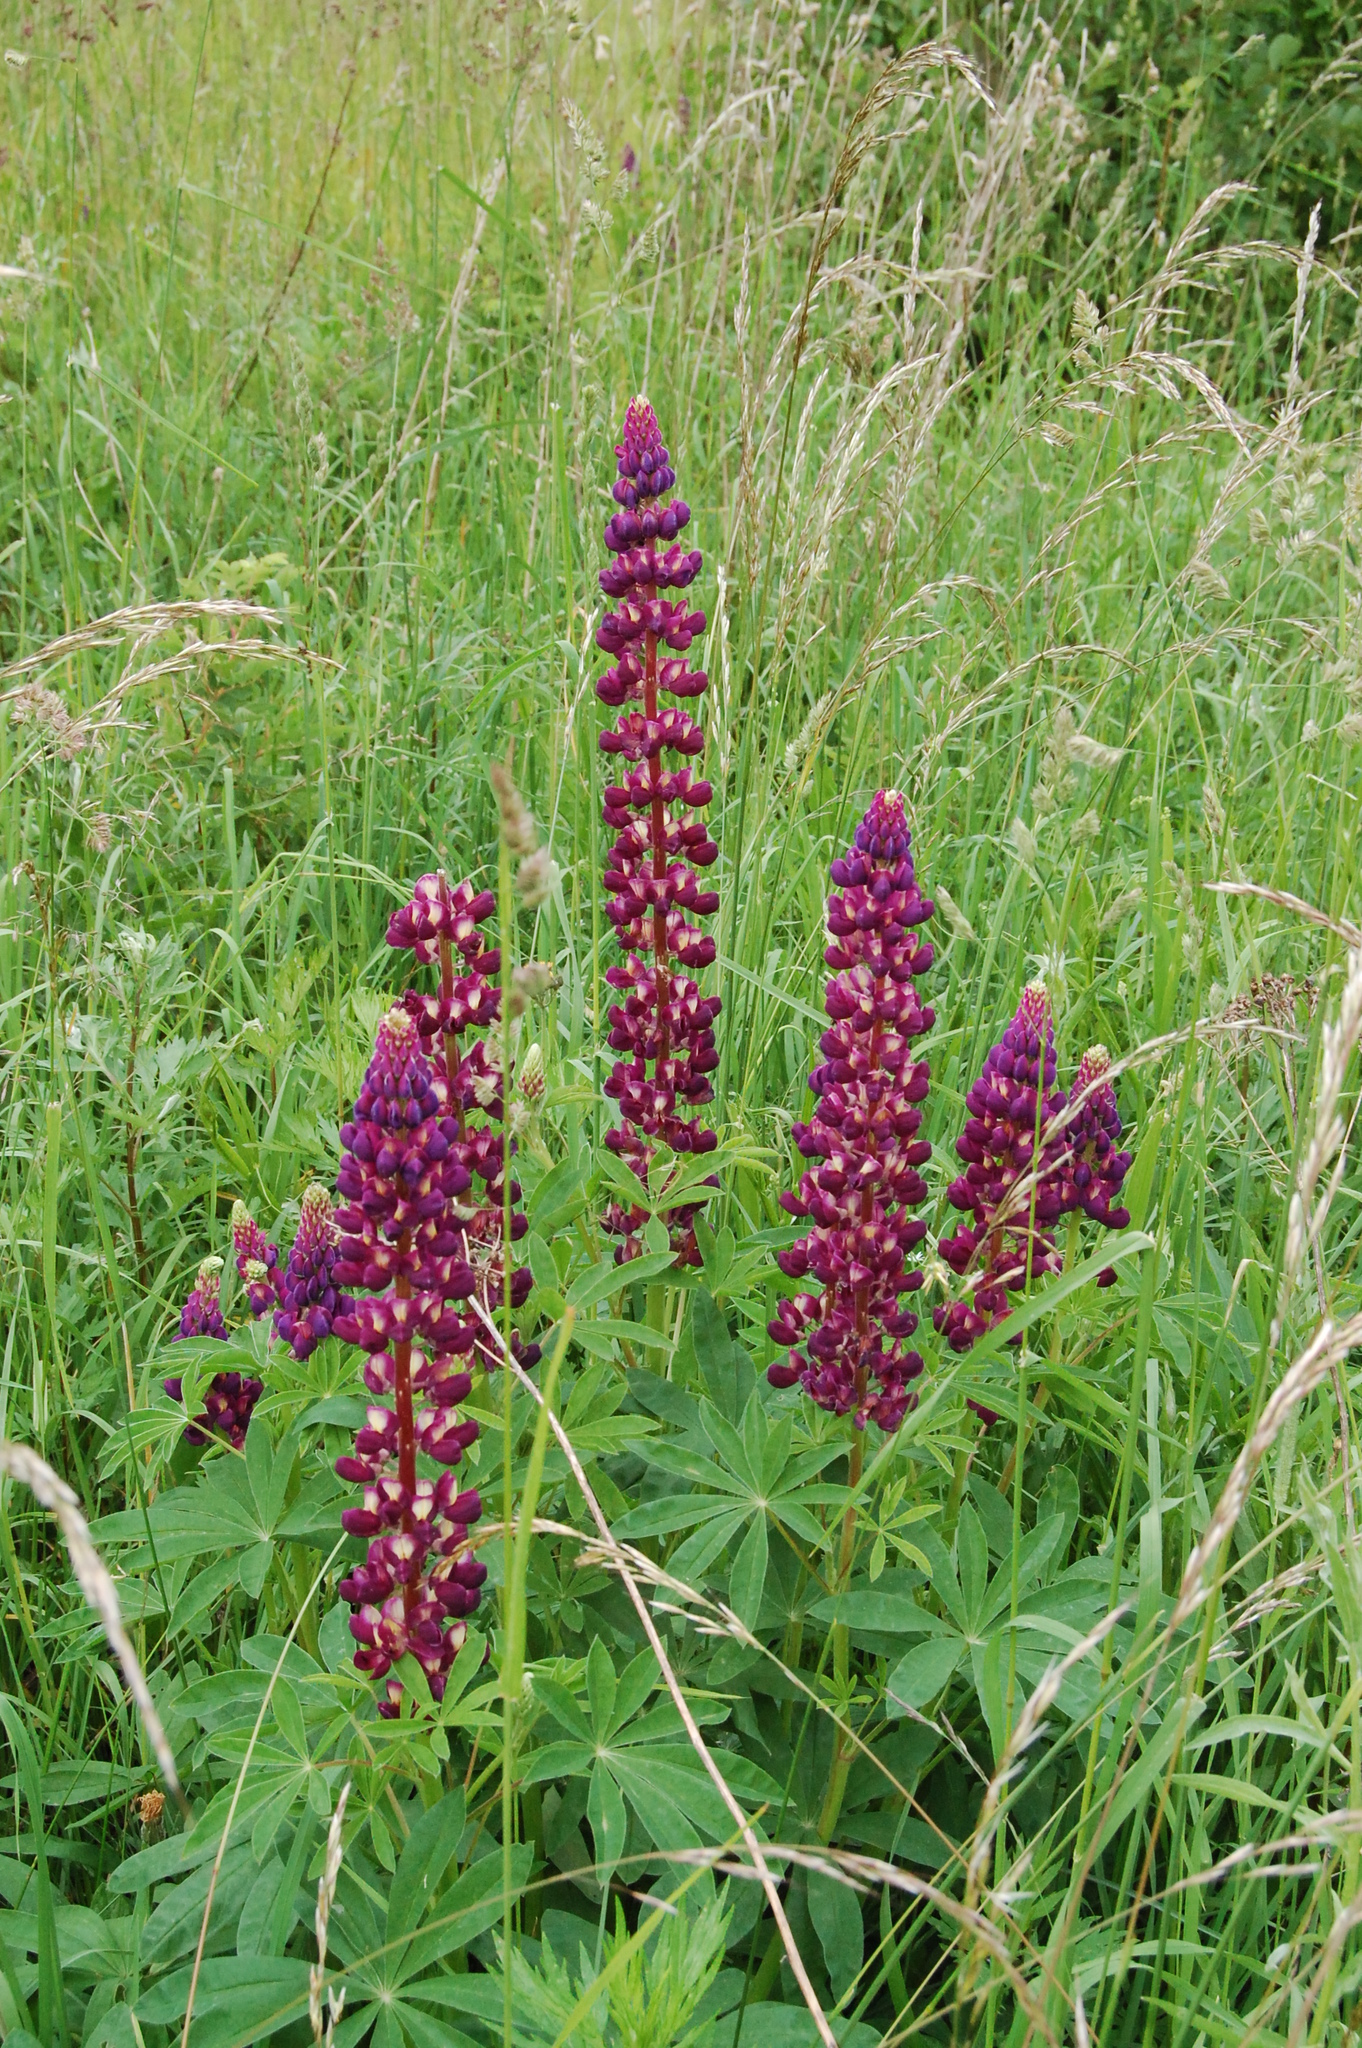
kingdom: Plantae
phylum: Tracheophyta
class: Magnoliopsida
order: Fabales
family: Fabaceae
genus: Lupinus
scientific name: Lupinus polyphyllus
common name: Garden lupin
